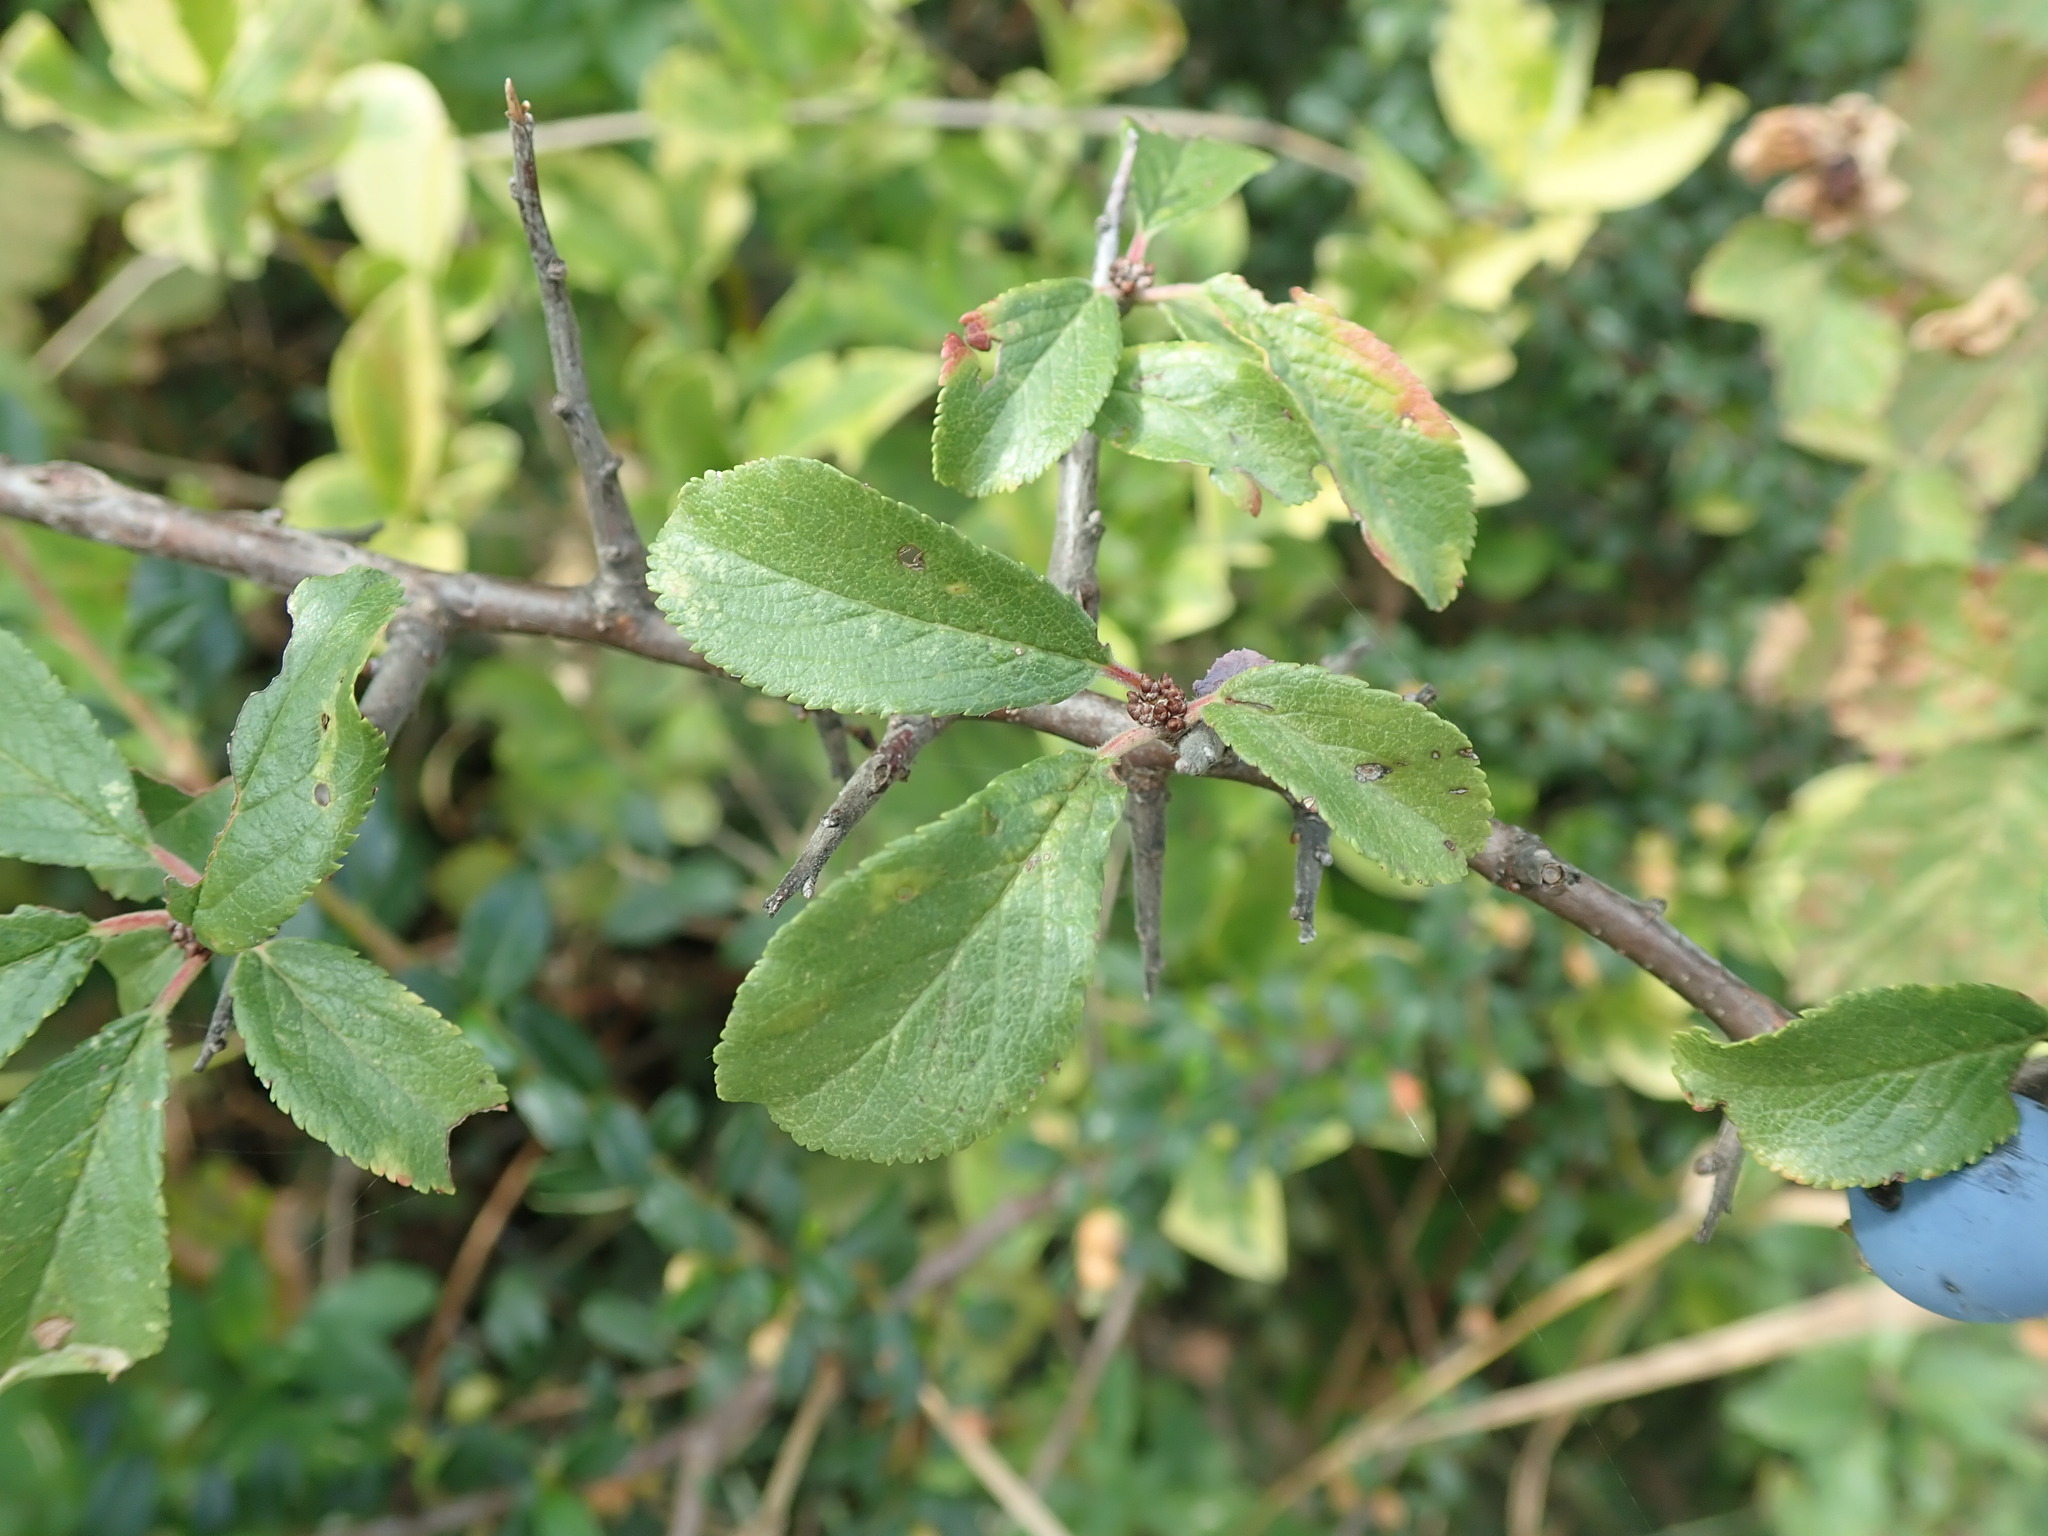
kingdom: Plantae
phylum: Tracheophyta
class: Magnoliopsida
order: Rosales
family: Rosaceae
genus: Prunus
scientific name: Prunus spinosa
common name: Blackthorn
